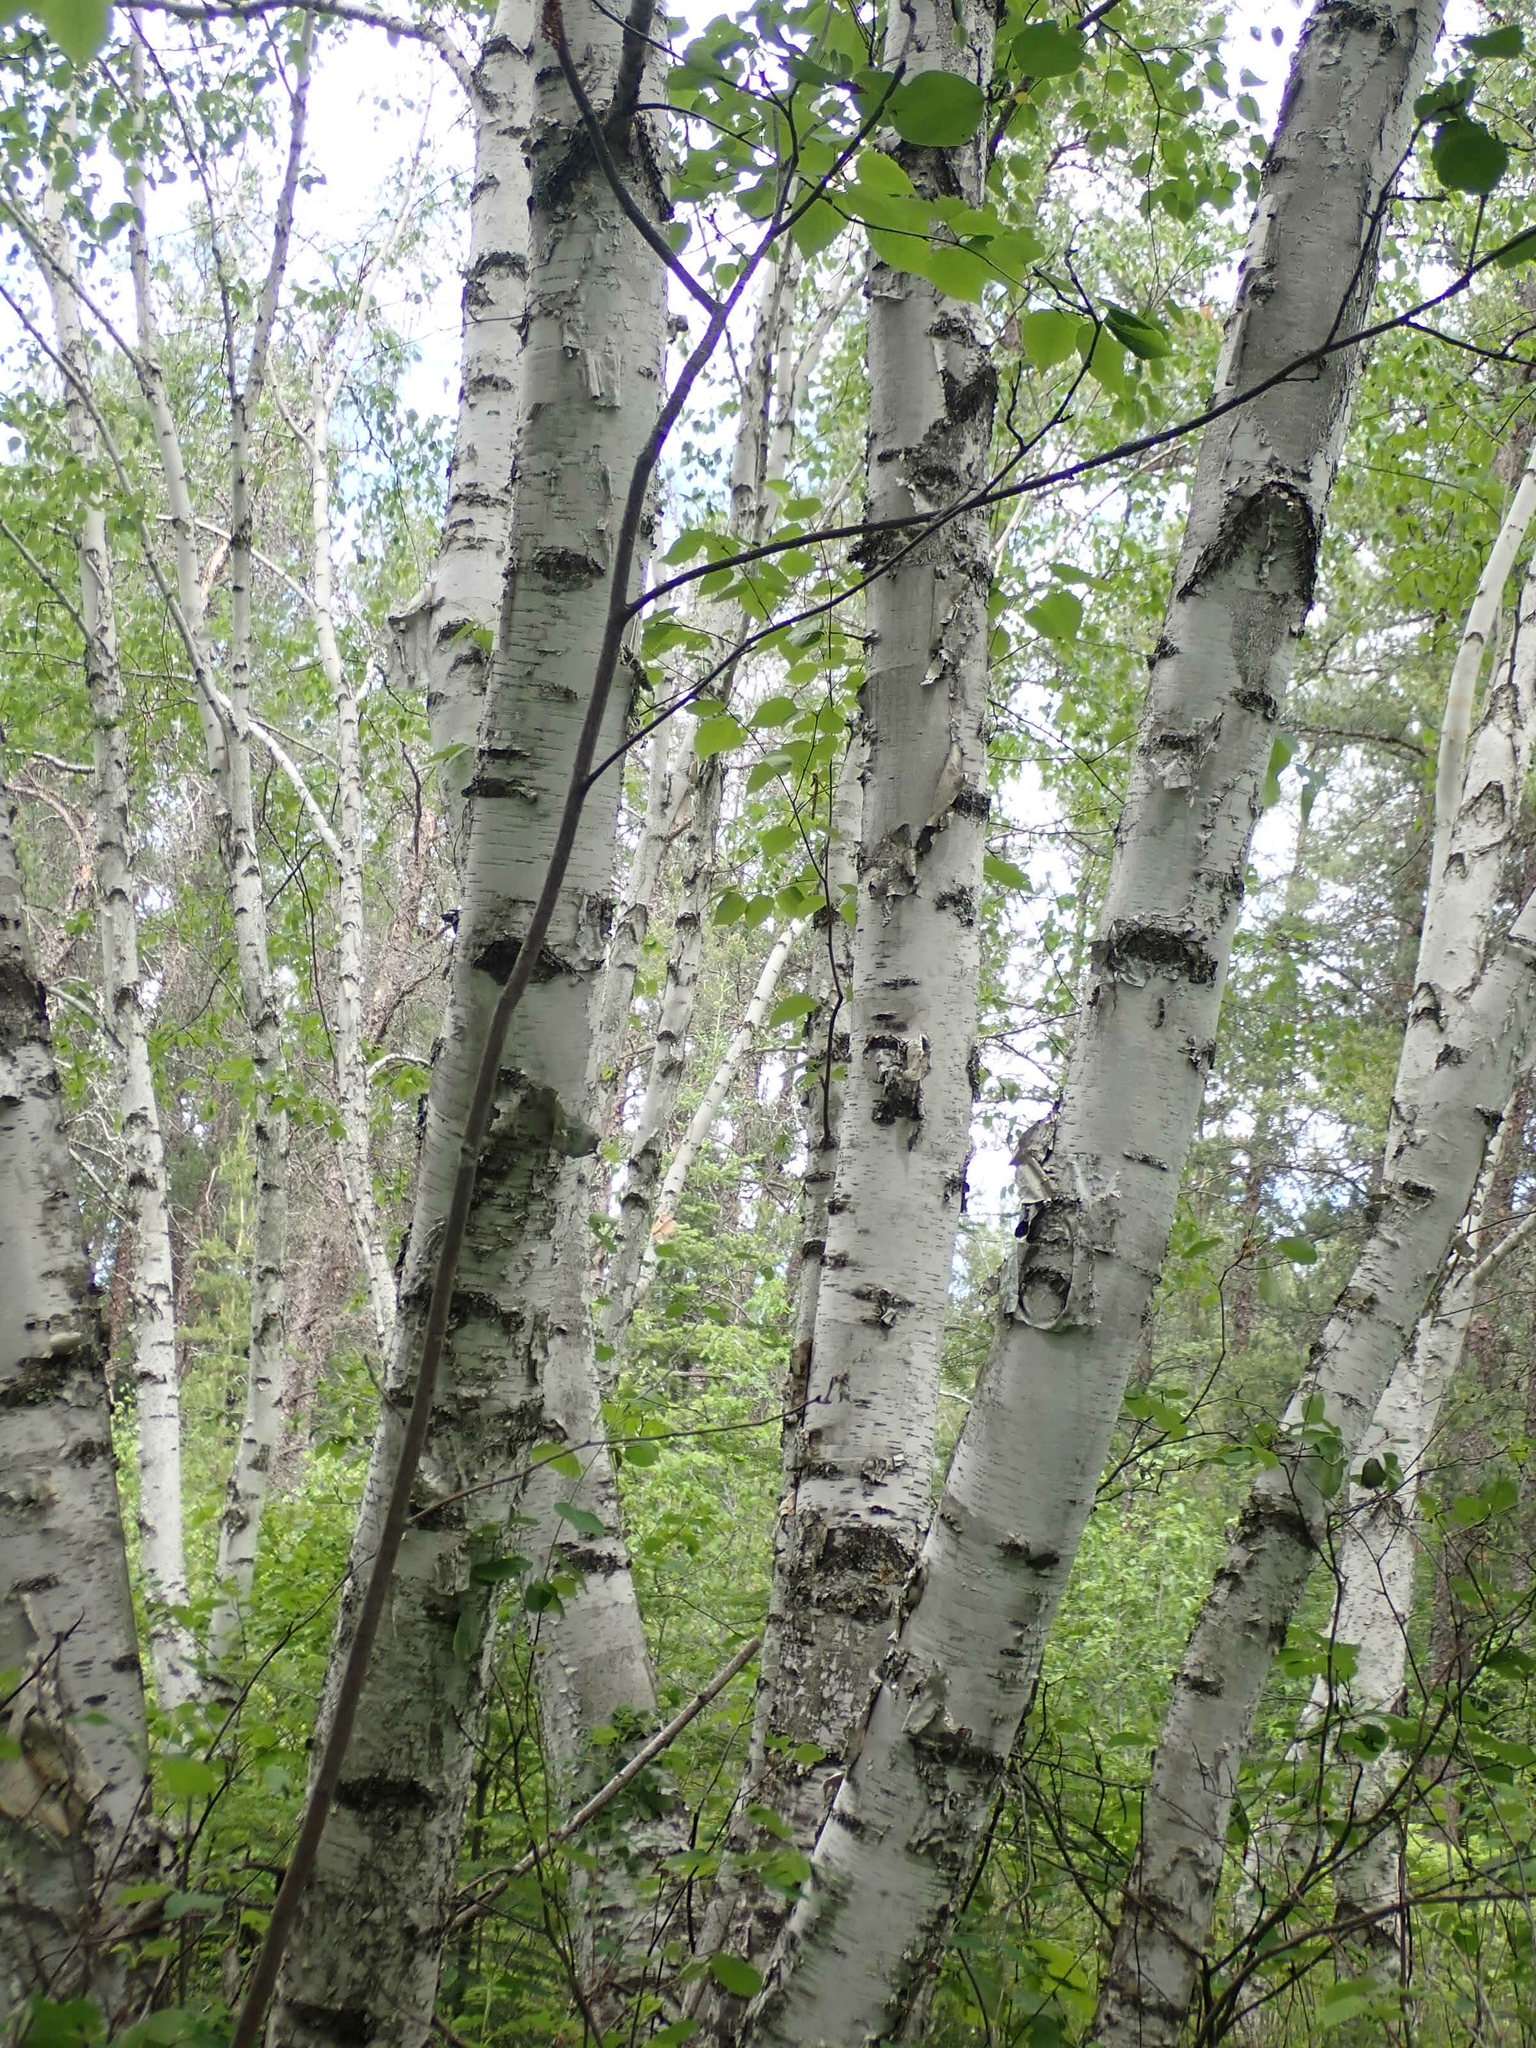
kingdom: Plantae
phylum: Tracheophyta
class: Magnoliopsida
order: Fagales
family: Betulaceae
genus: Betula
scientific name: Betula papyrifera
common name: Paper birch
